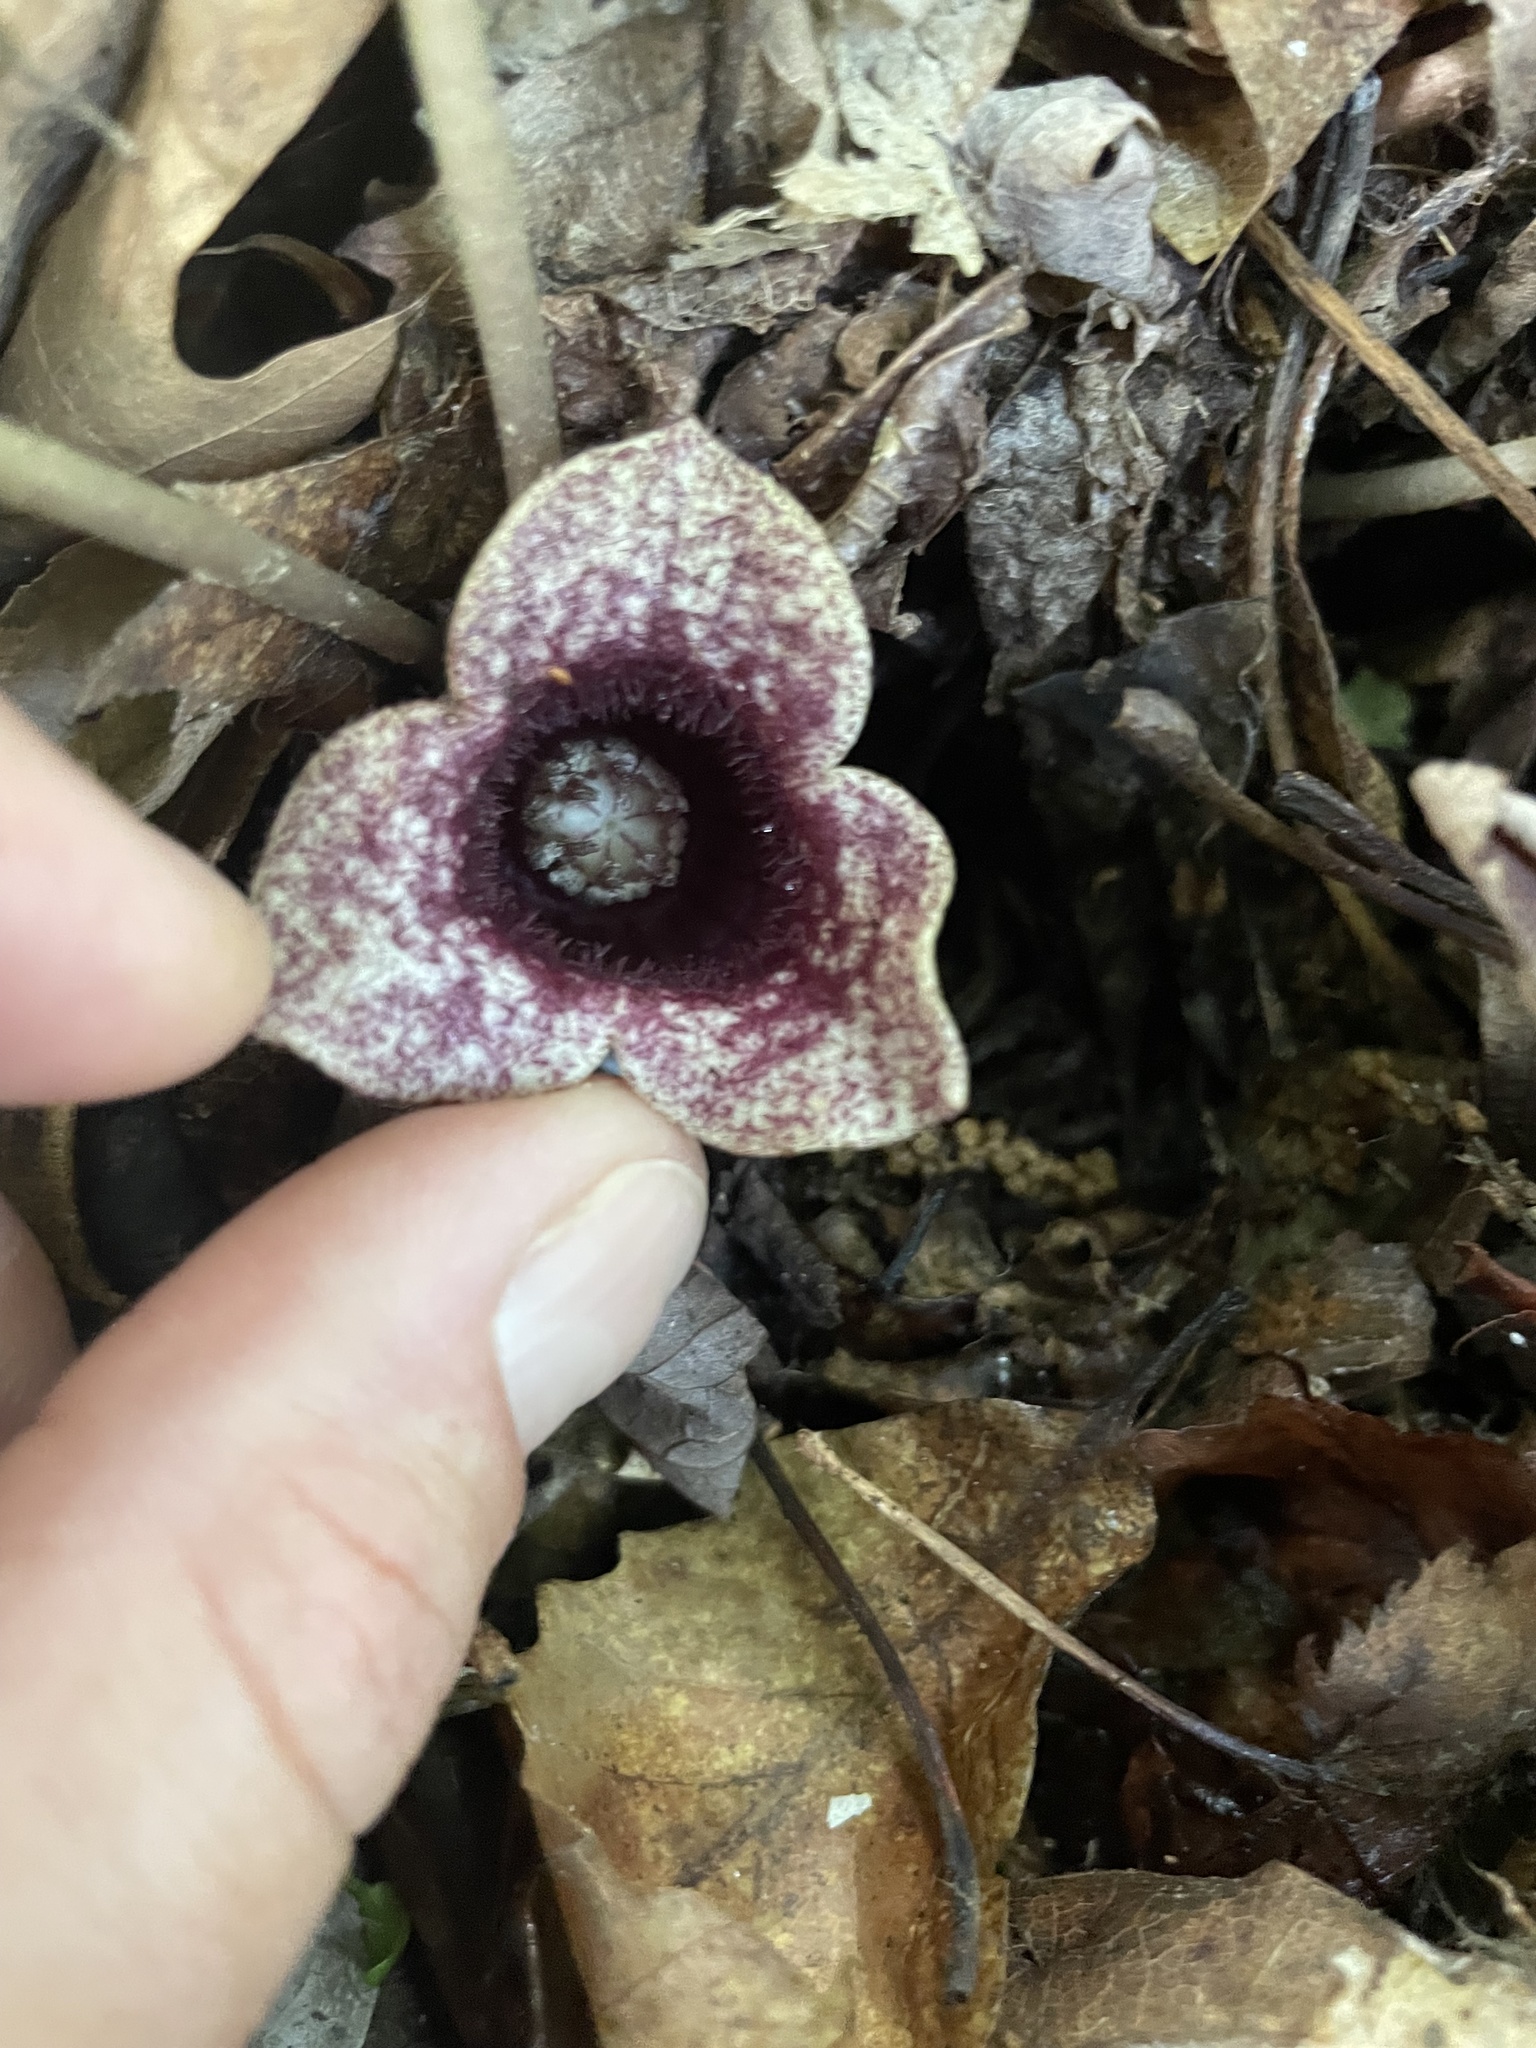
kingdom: Plantae
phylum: Tracheophyta
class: Magnoliopsida
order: Piperales
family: Aristolochiaceae
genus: Hexastylis
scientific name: Hexastylis shuttleworthii
